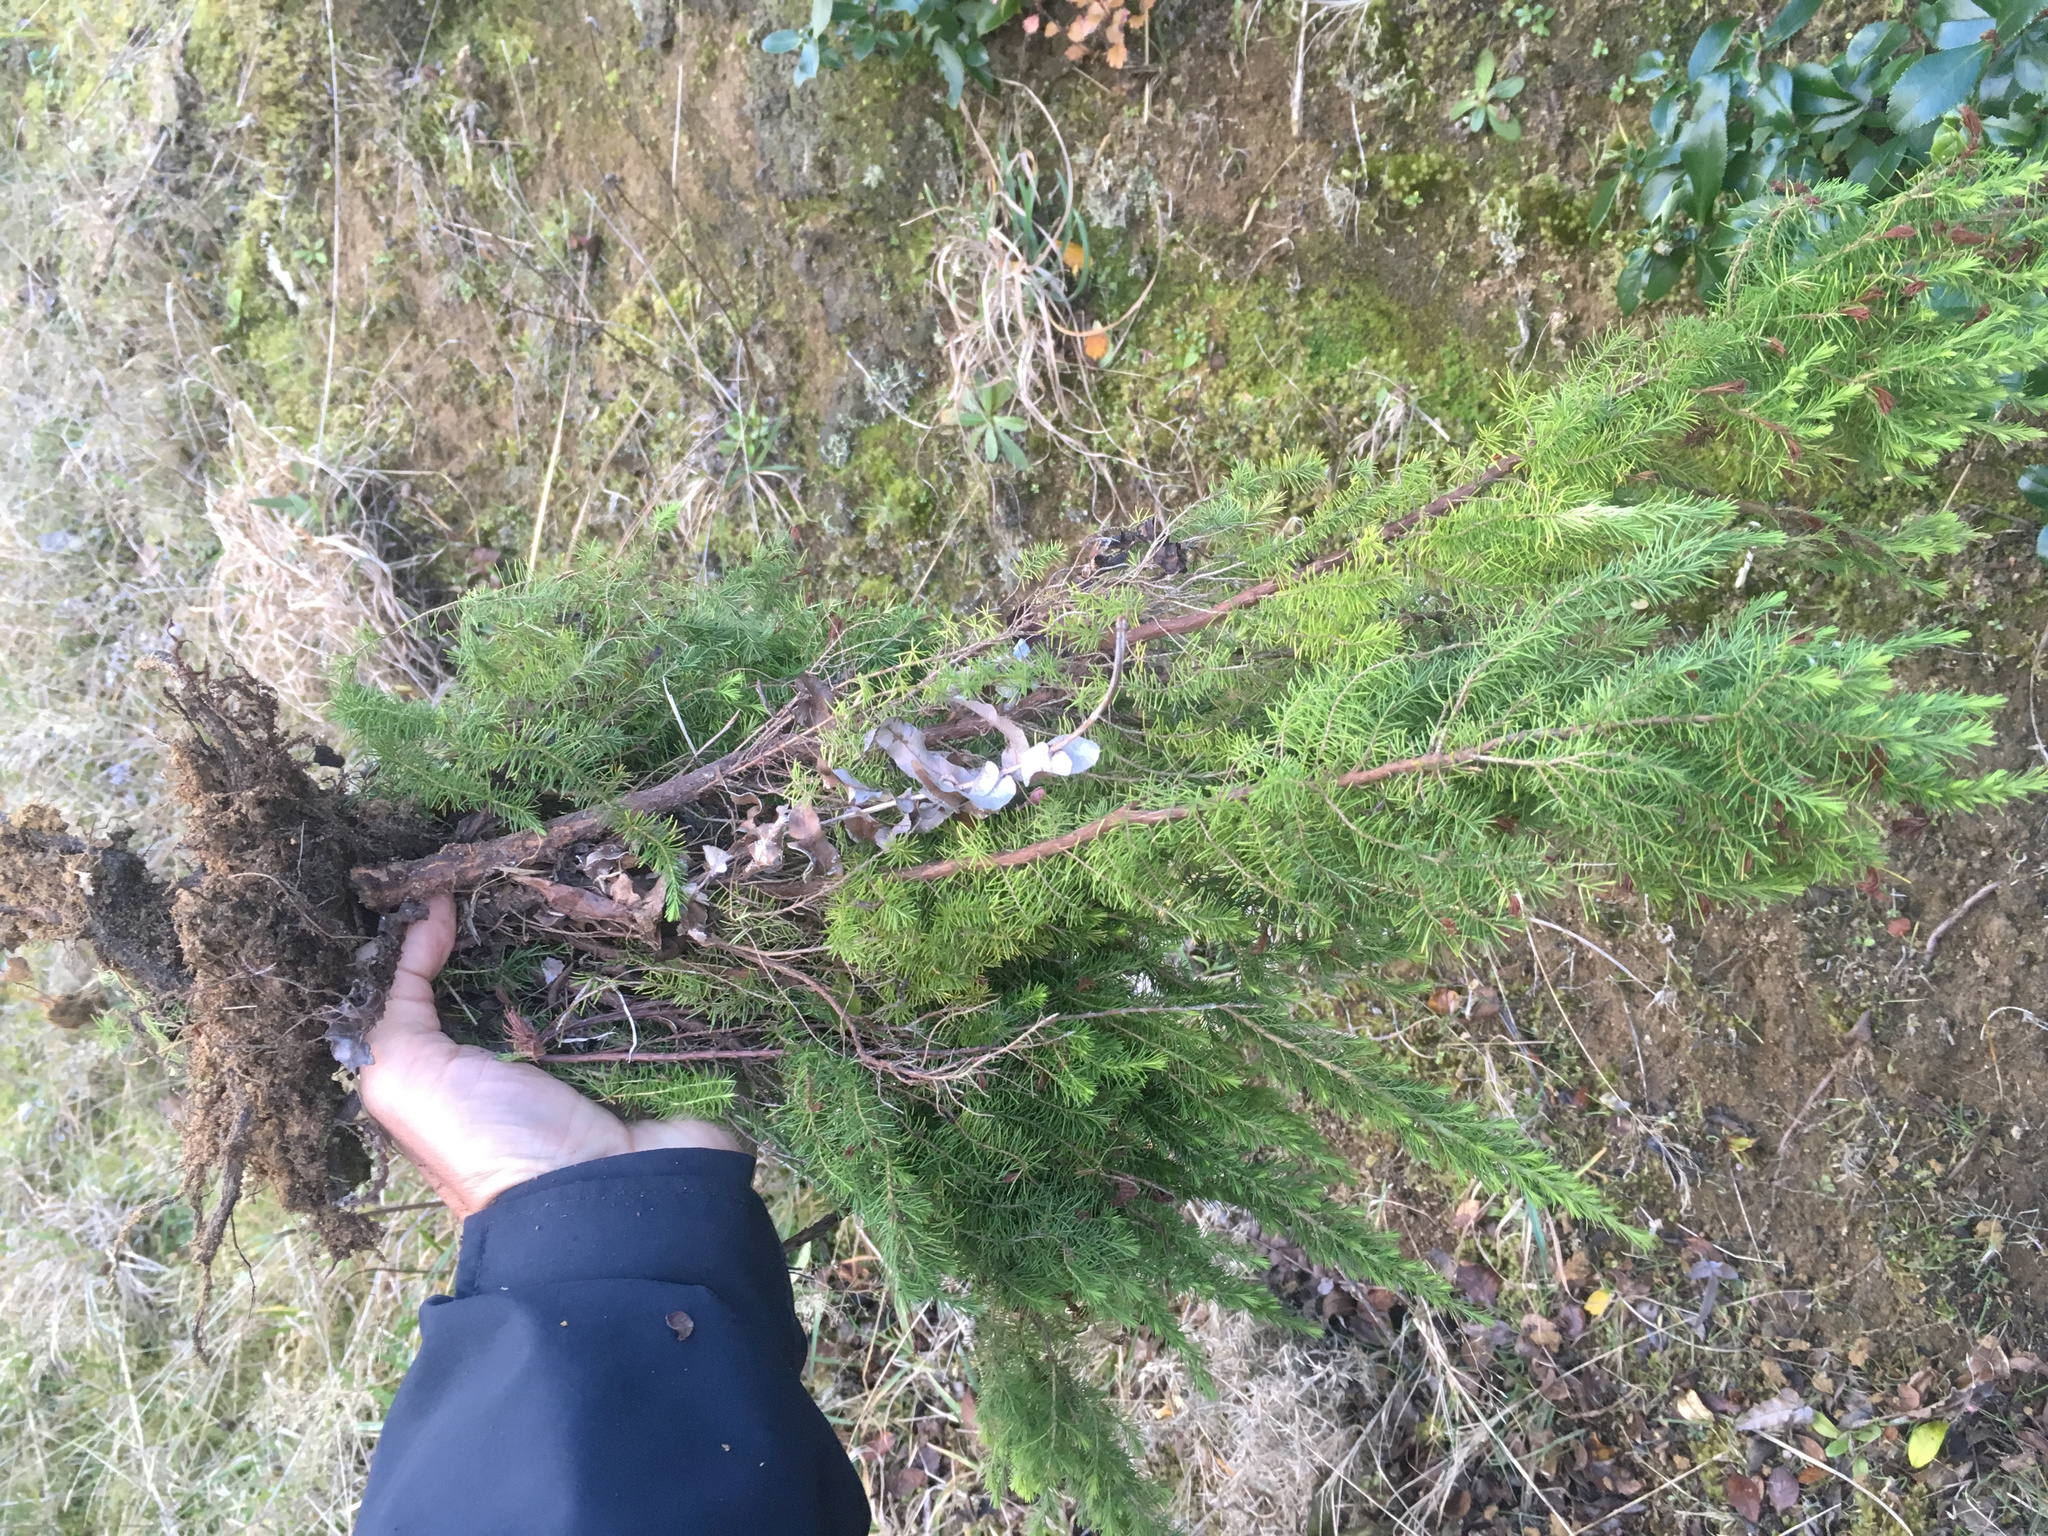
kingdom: Plantae
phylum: Tracheophyta
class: Magnoliopsida
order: Ericales
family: Ericaceae
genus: Erica
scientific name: Erica lusitanica
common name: Spanish heath
